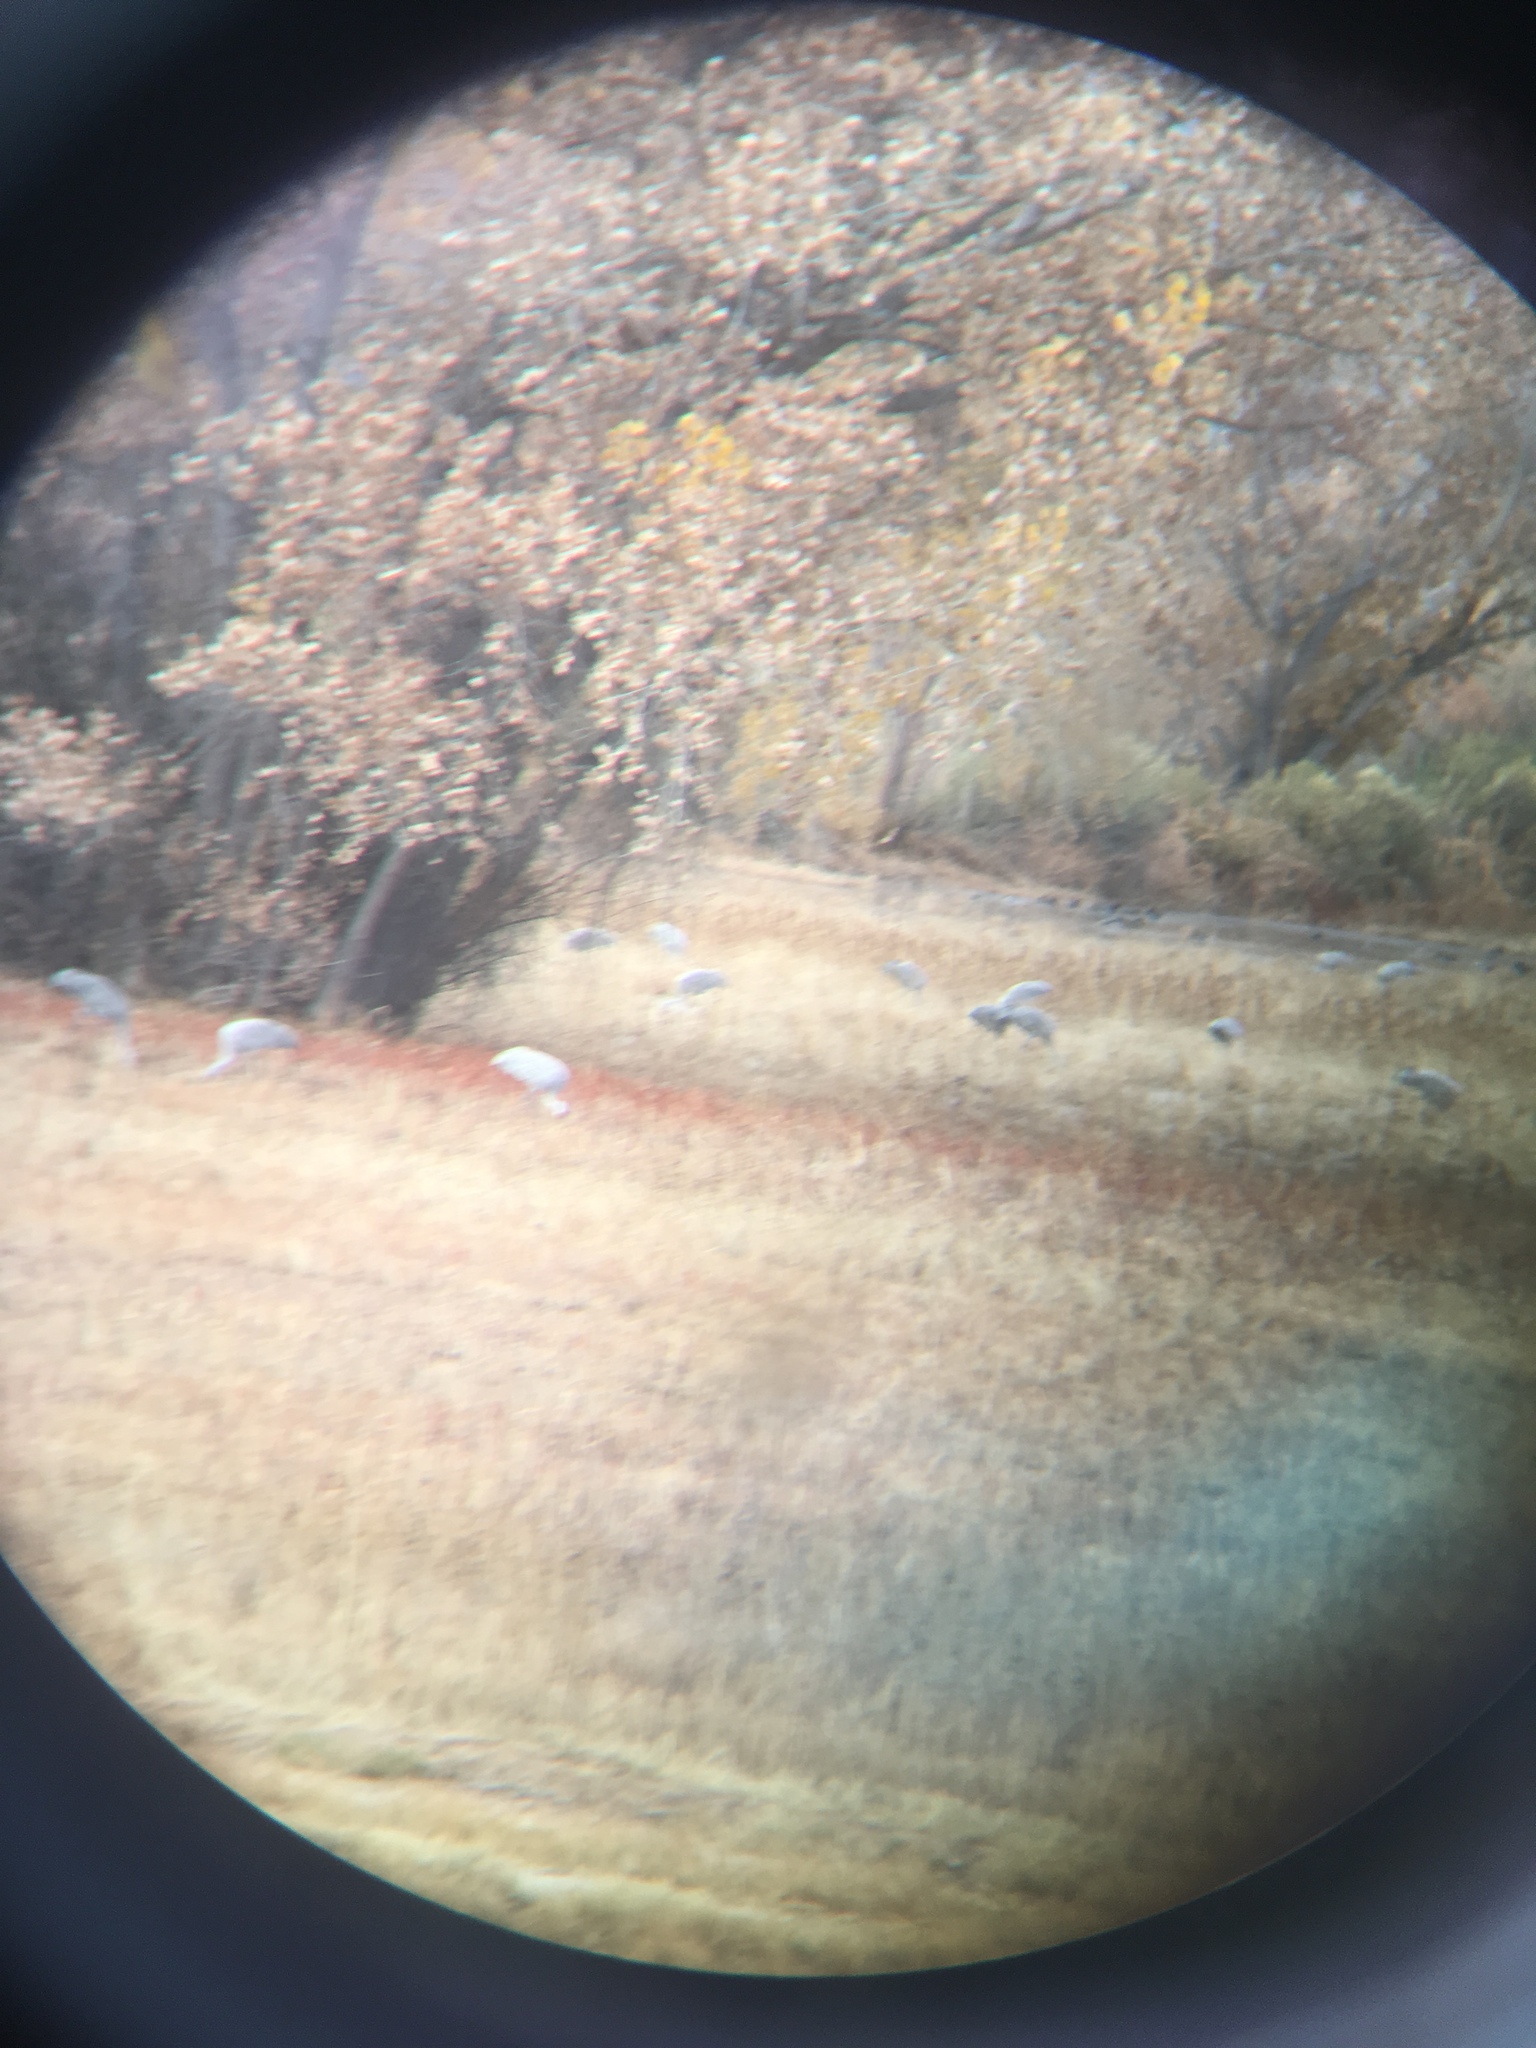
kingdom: Animalia
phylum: Chordata
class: Aves
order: Gruiformes
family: Gruidae
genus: Grus
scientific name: Grus canadensis
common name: Sandhill crane
